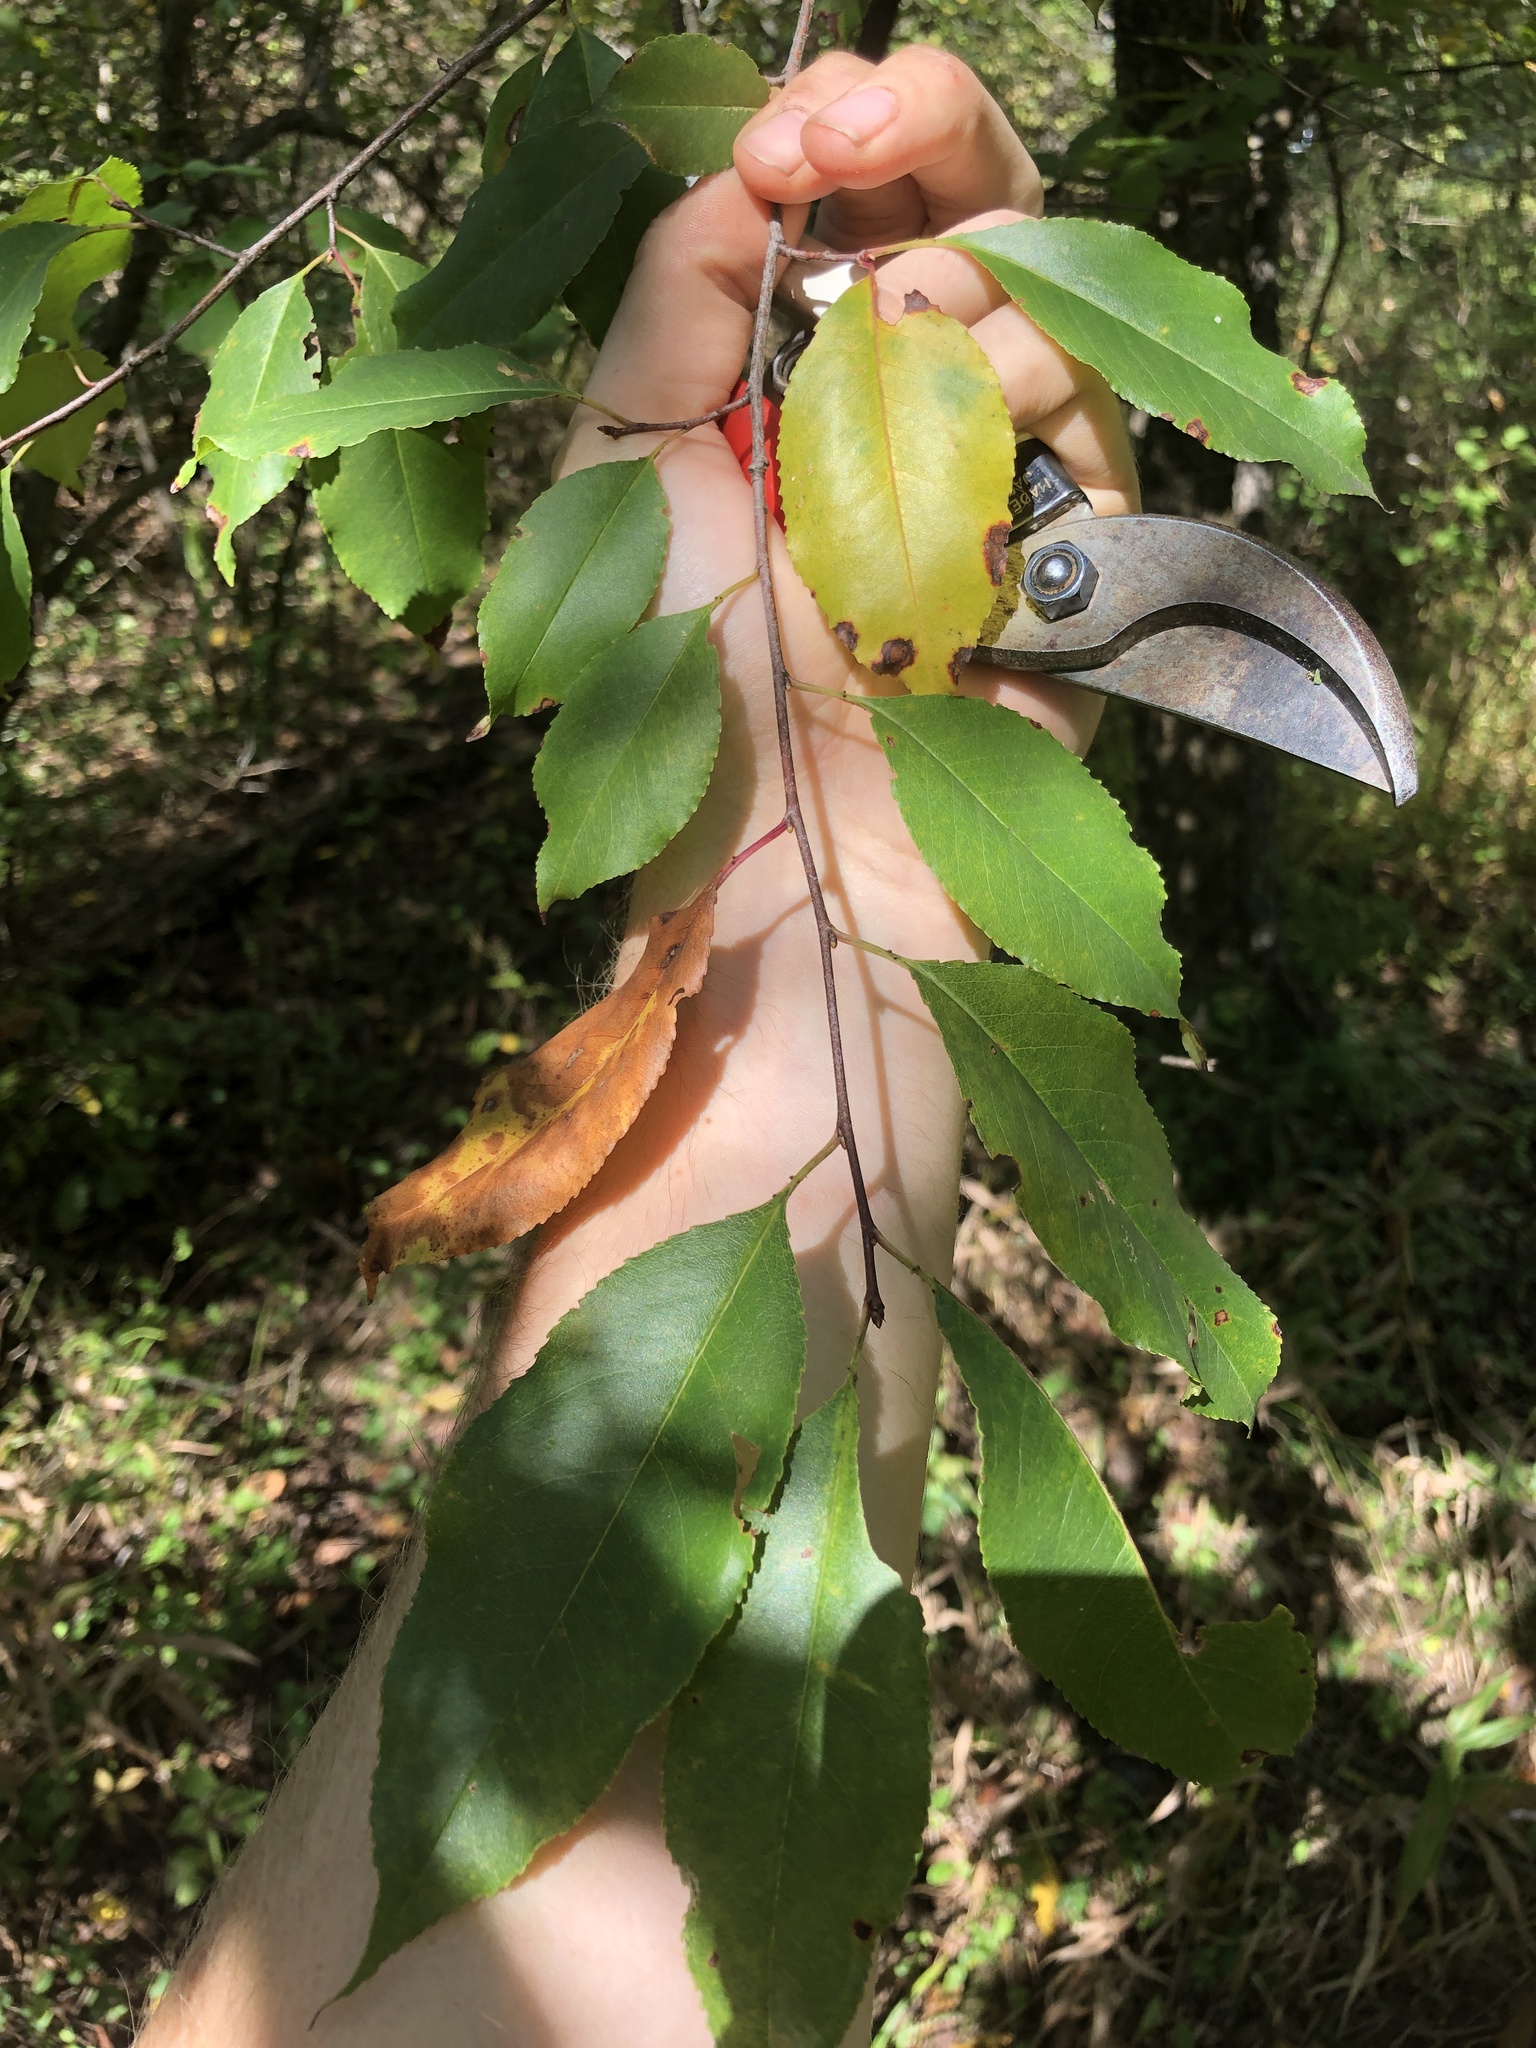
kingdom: Plantae
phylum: Tracheophyta
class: Magnoliopsida
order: Rosales
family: Rosaceae
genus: Prunus
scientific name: Prunus serotina
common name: Black cherry
